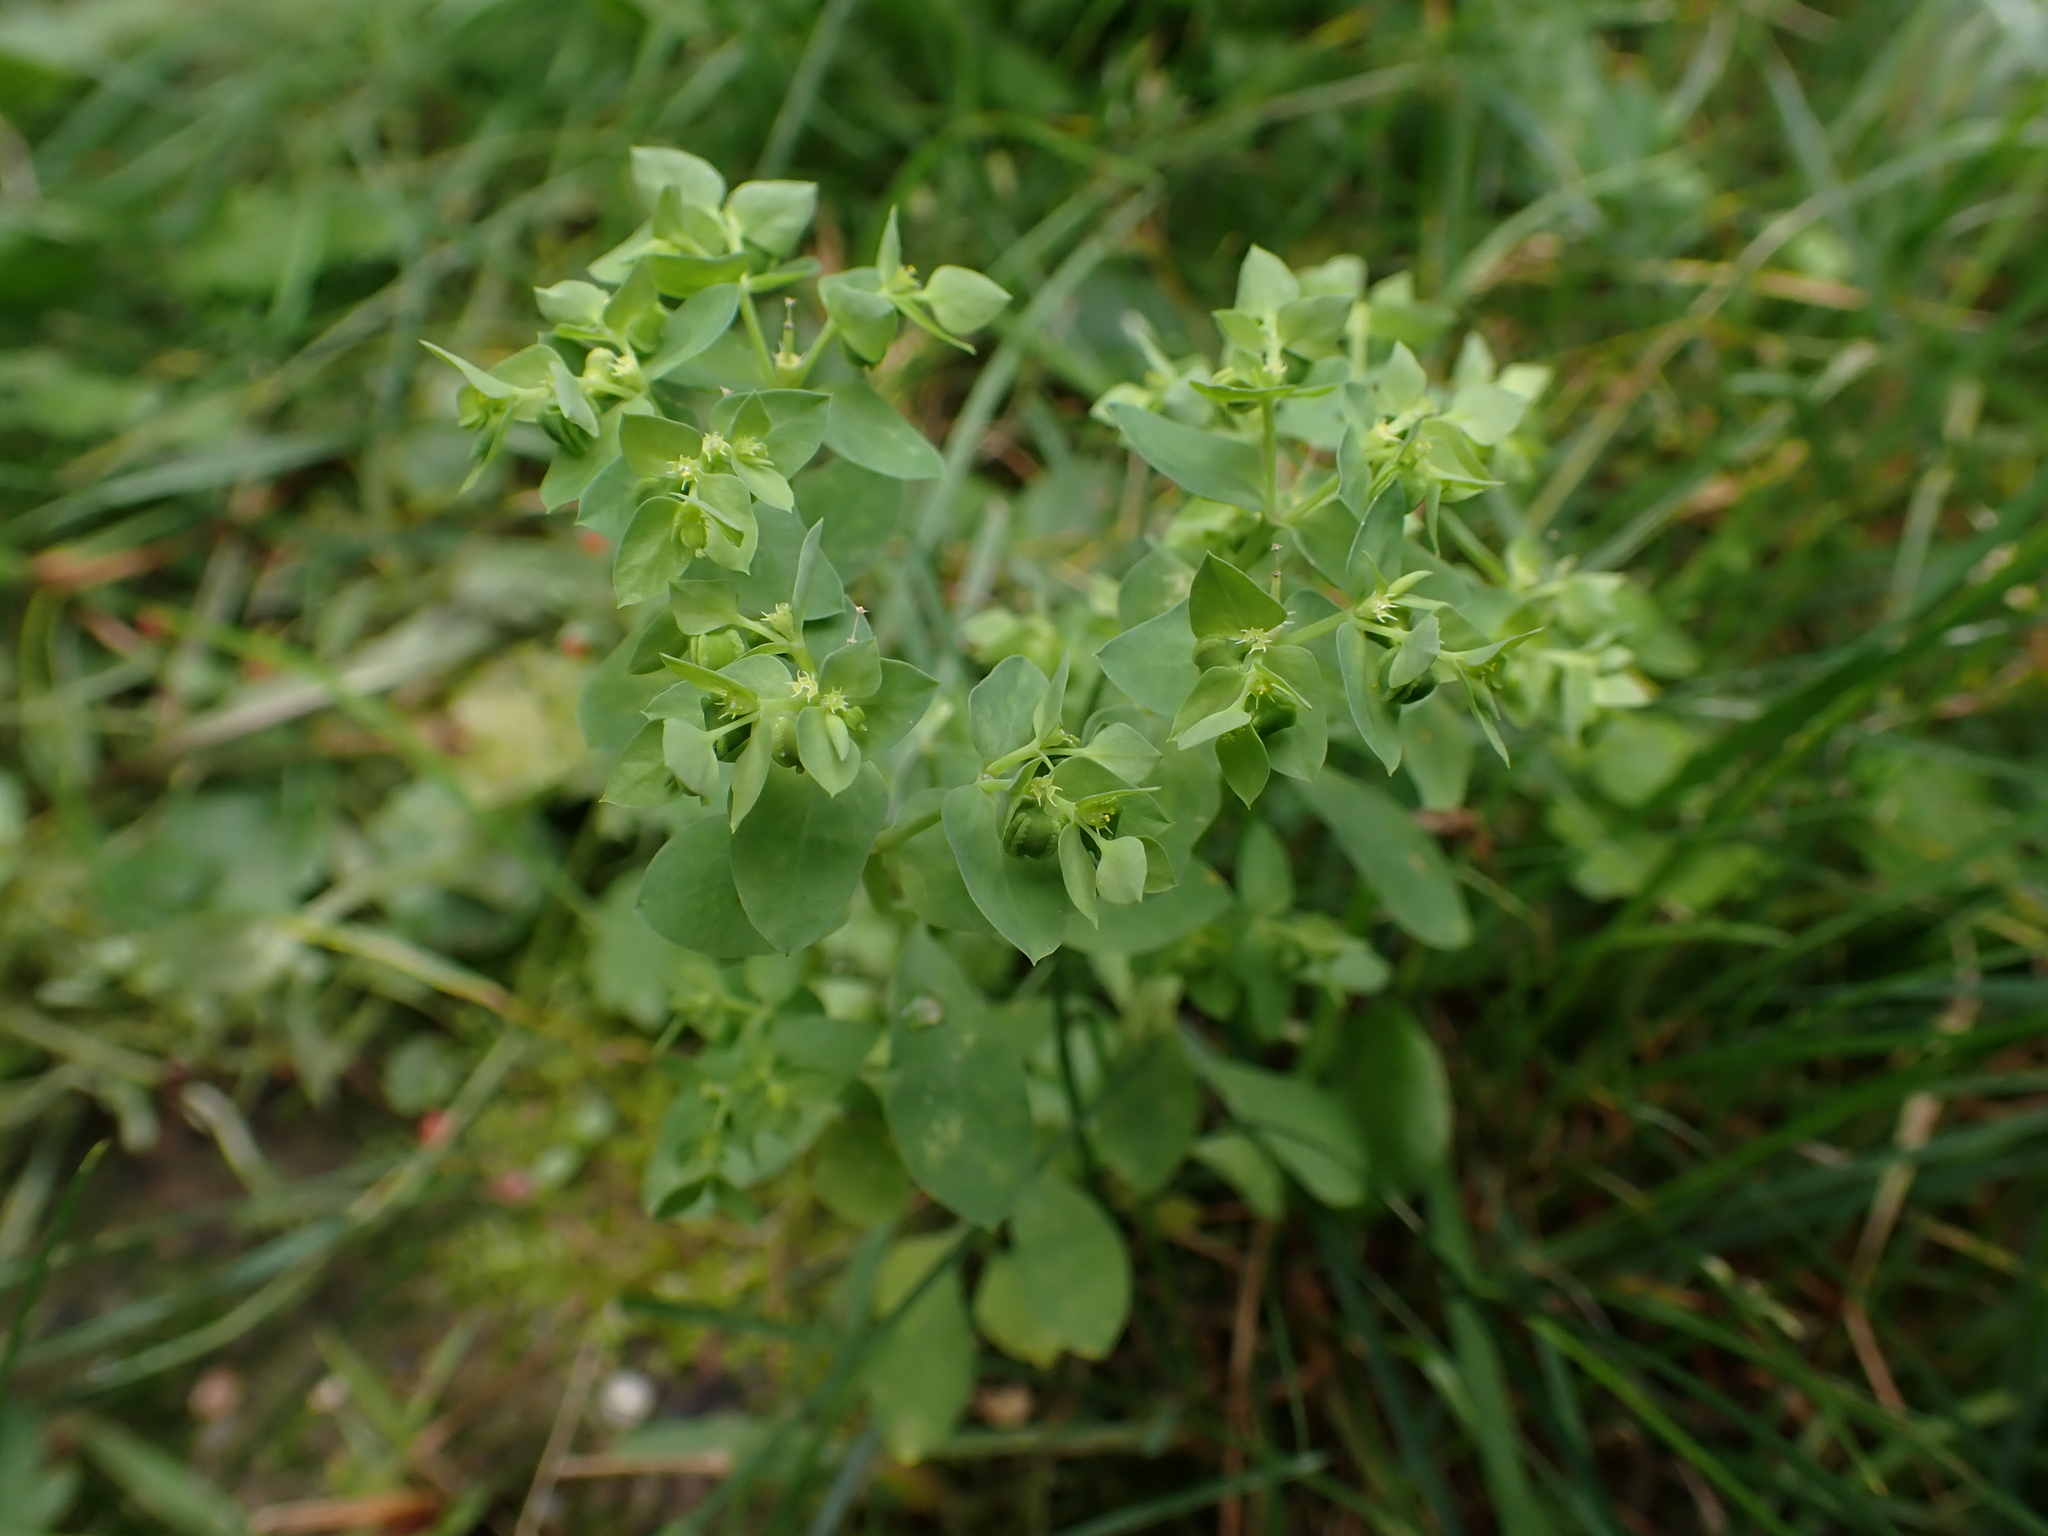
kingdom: Plantae
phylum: Tracheophyta
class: Magnoliopsida
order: Malpighiales
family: Euphorbiaceae
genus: Euphorbia
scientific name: Euphorbia peplus
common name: Petty spurge
